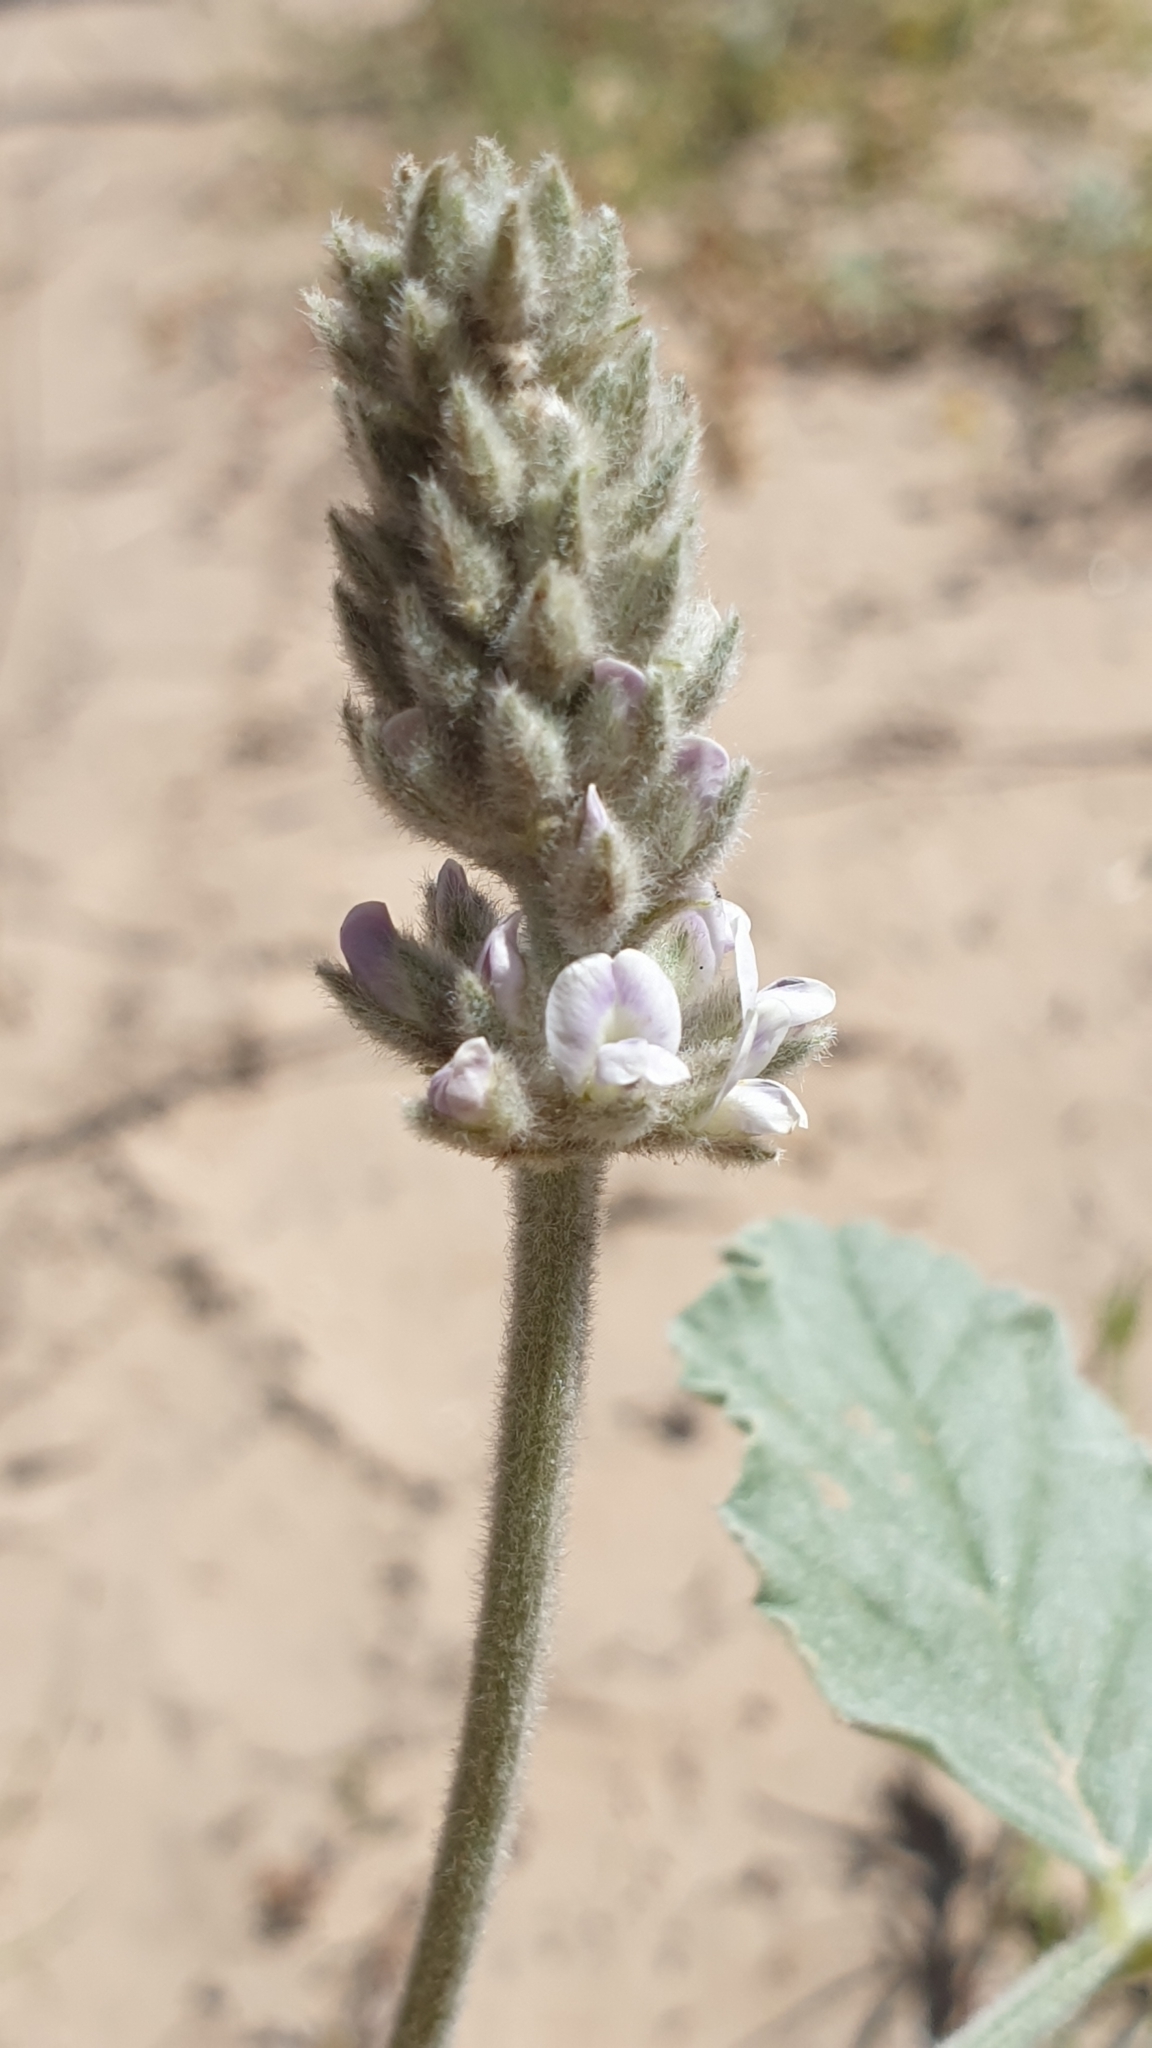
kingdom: Plantae
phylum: Tracheophyta
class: Magnoliopsida
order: Fabales
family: Fabaceae
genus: Cullen
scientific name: Cullen discolor
